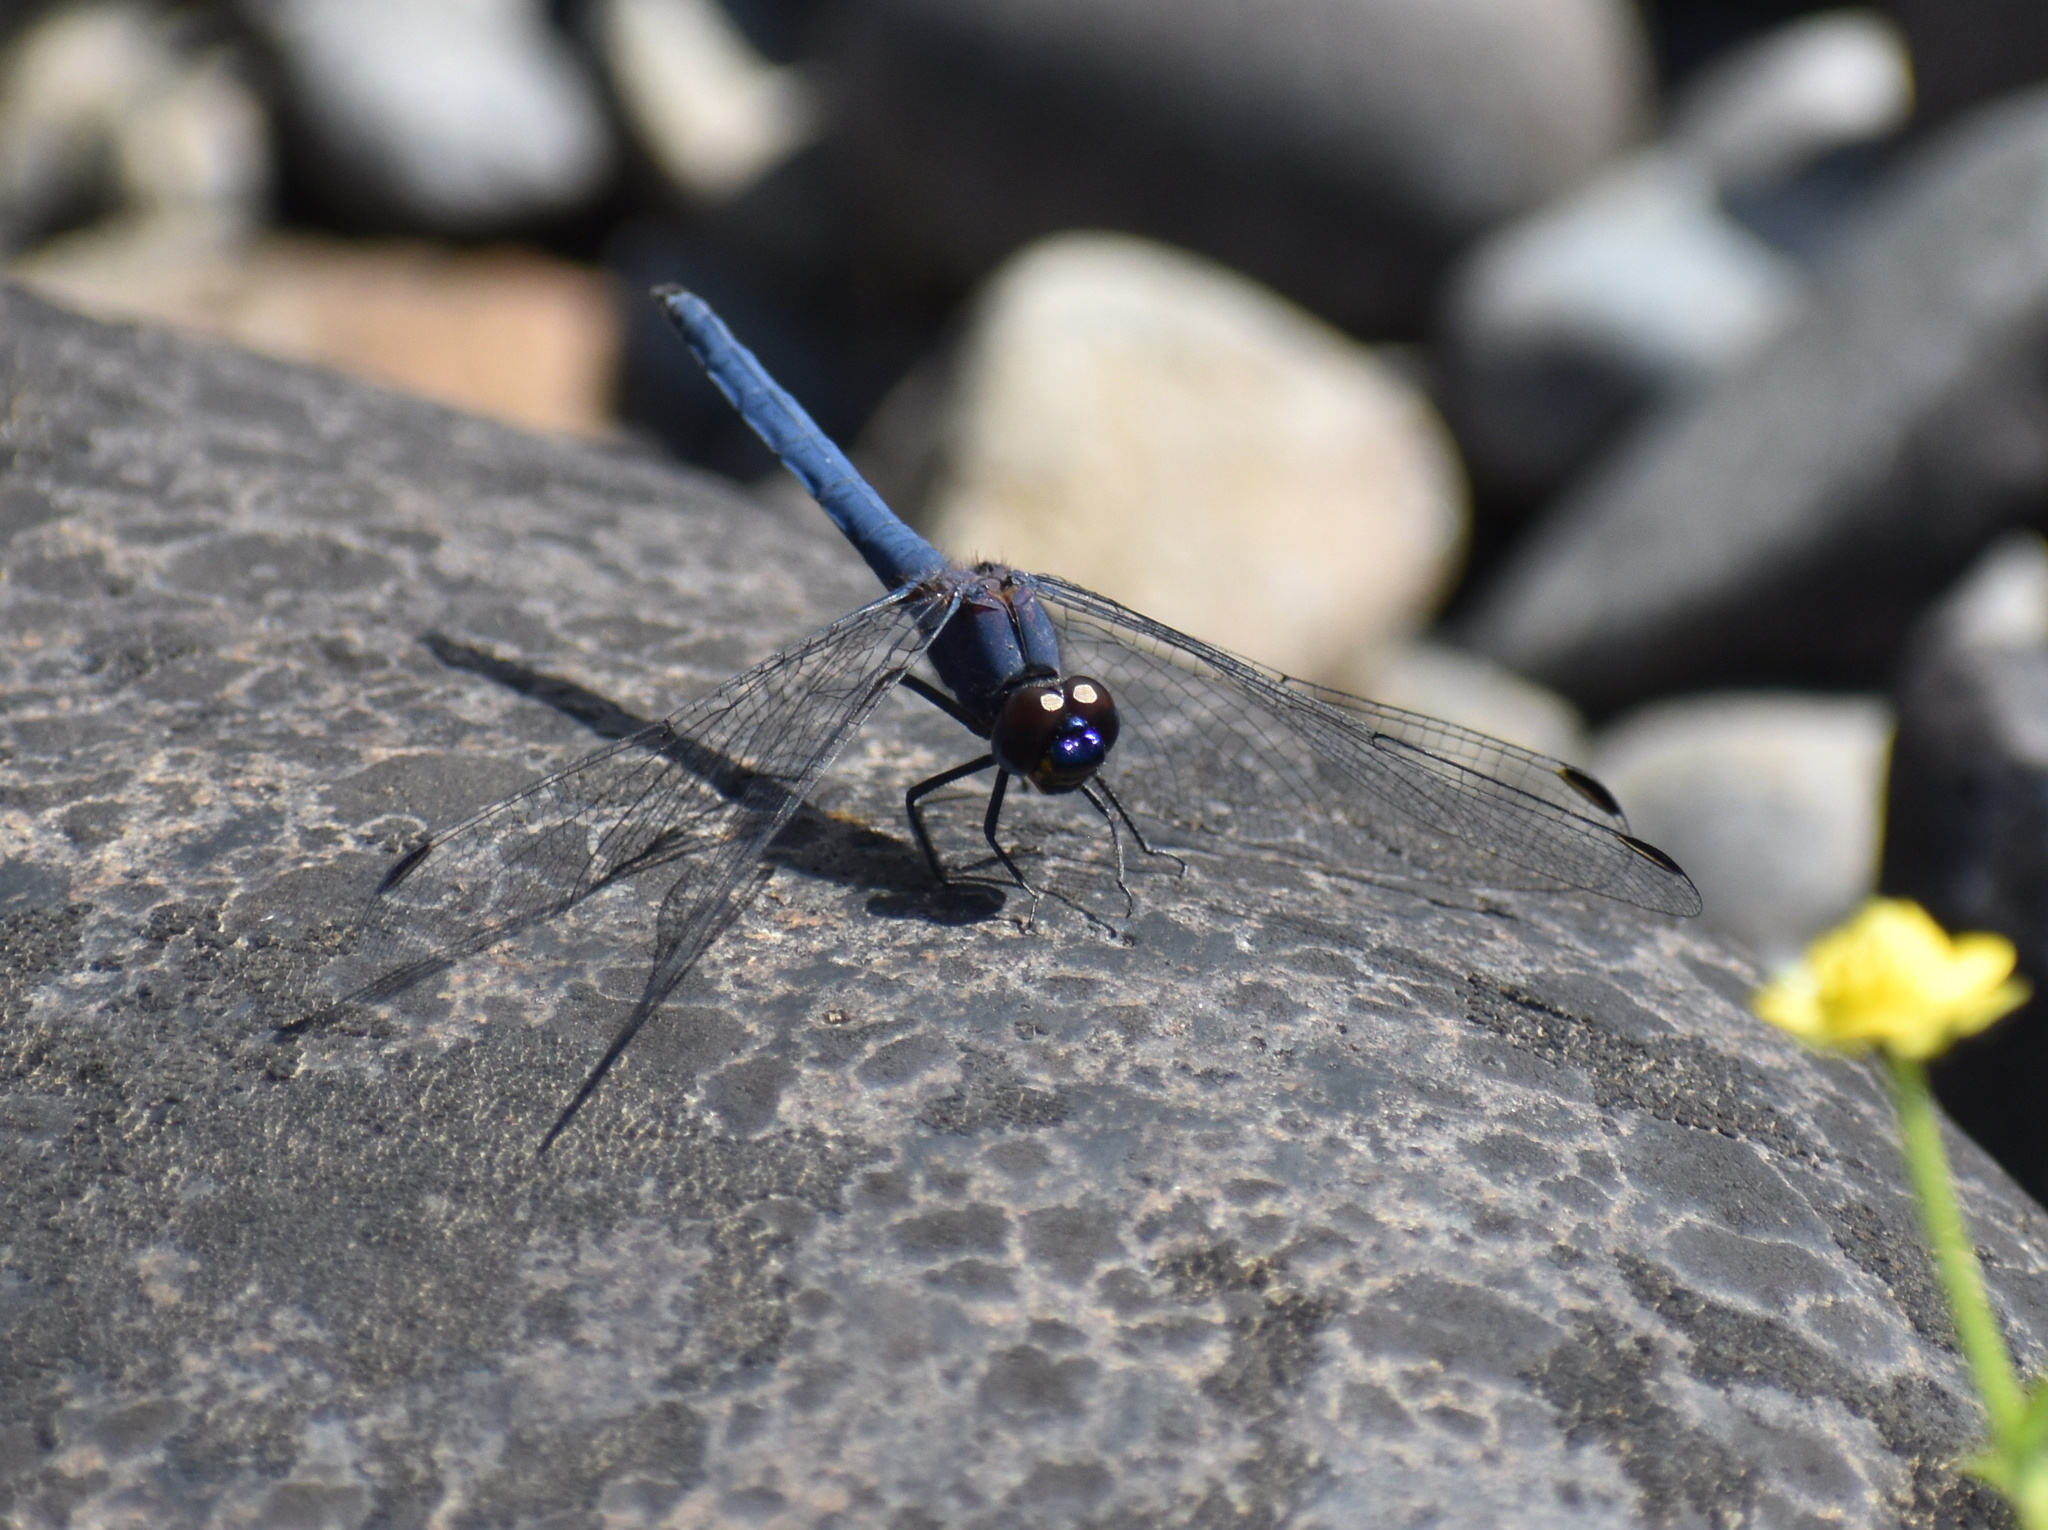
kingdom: Animalia
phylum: Arthropoda
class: Insecta
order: Odonata
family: Libellulidae
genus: Trithemis
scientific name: Trithemis furva
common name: Dark dropwing
